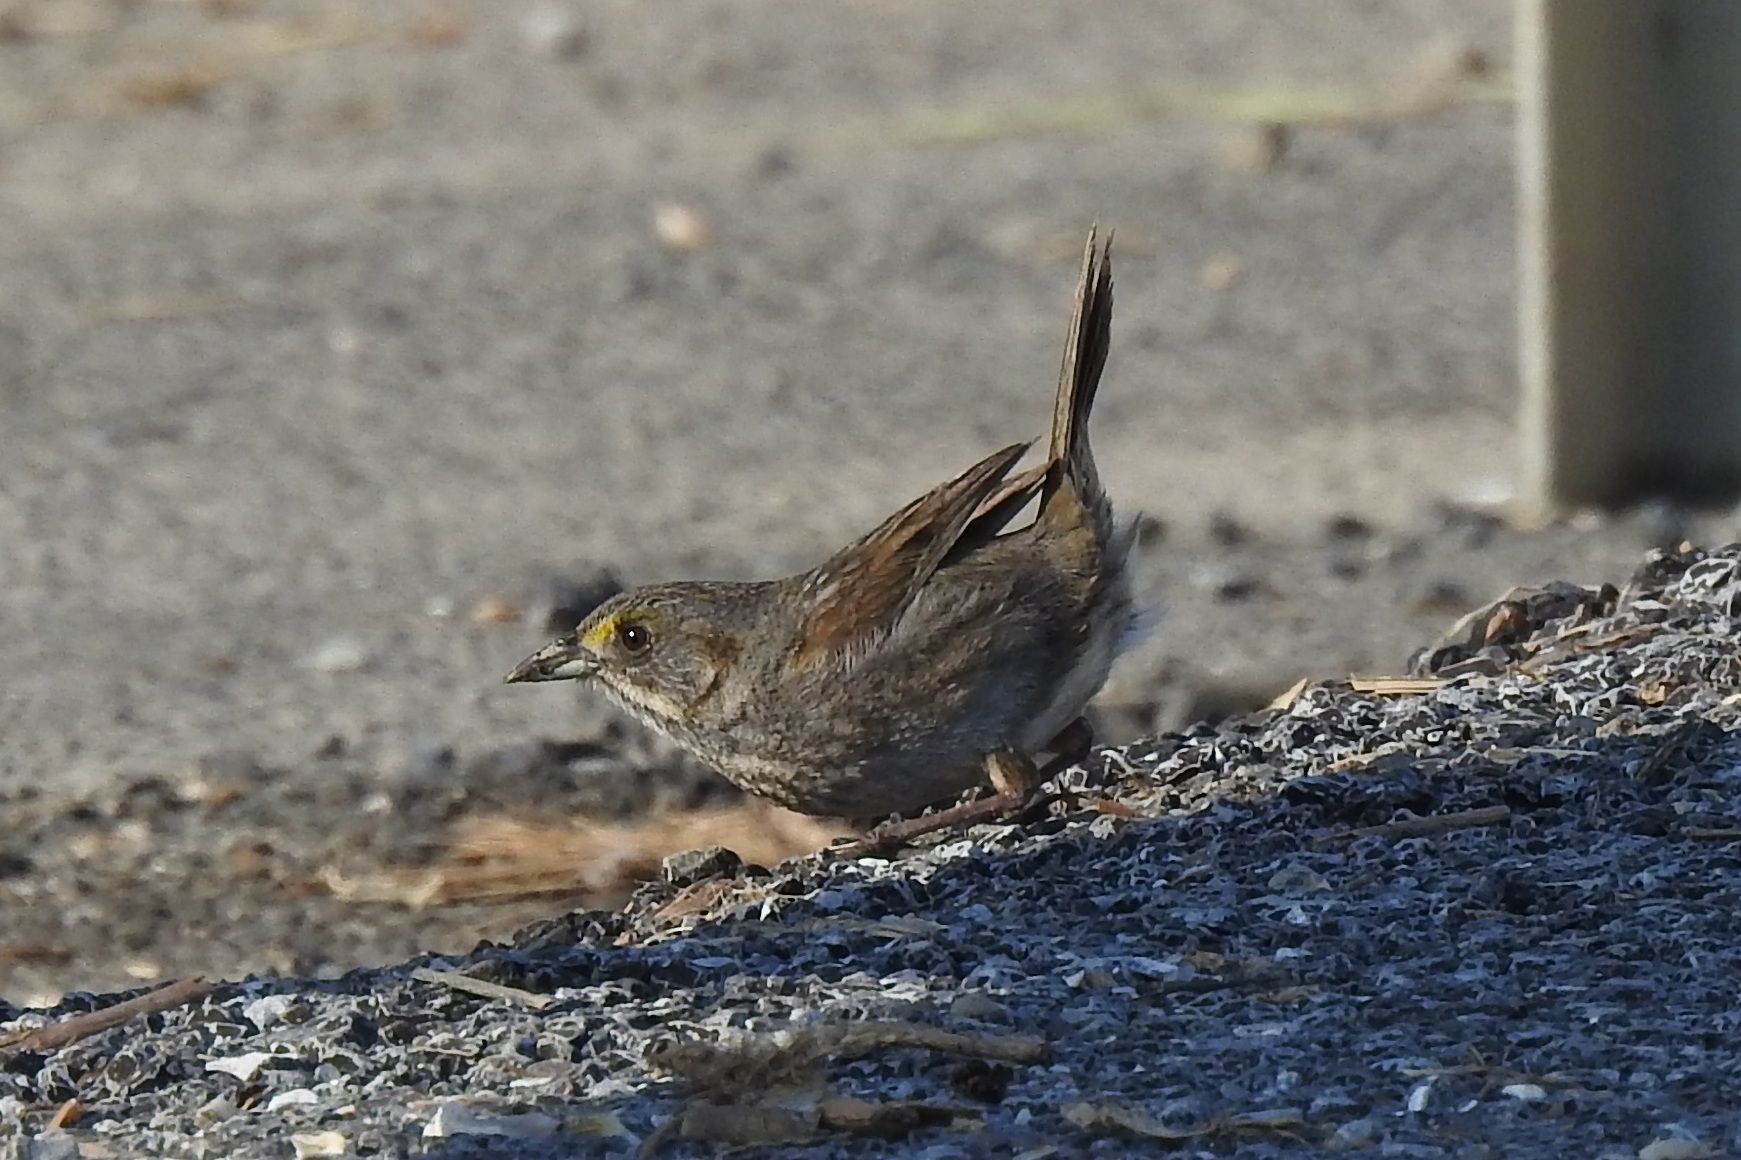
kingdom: Animalia
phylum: Chordata
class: Aves
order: Passeriformes
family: Passerellidae
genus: Ammospiza
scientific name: Ammospiza maritima
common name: Seaside sparrow
